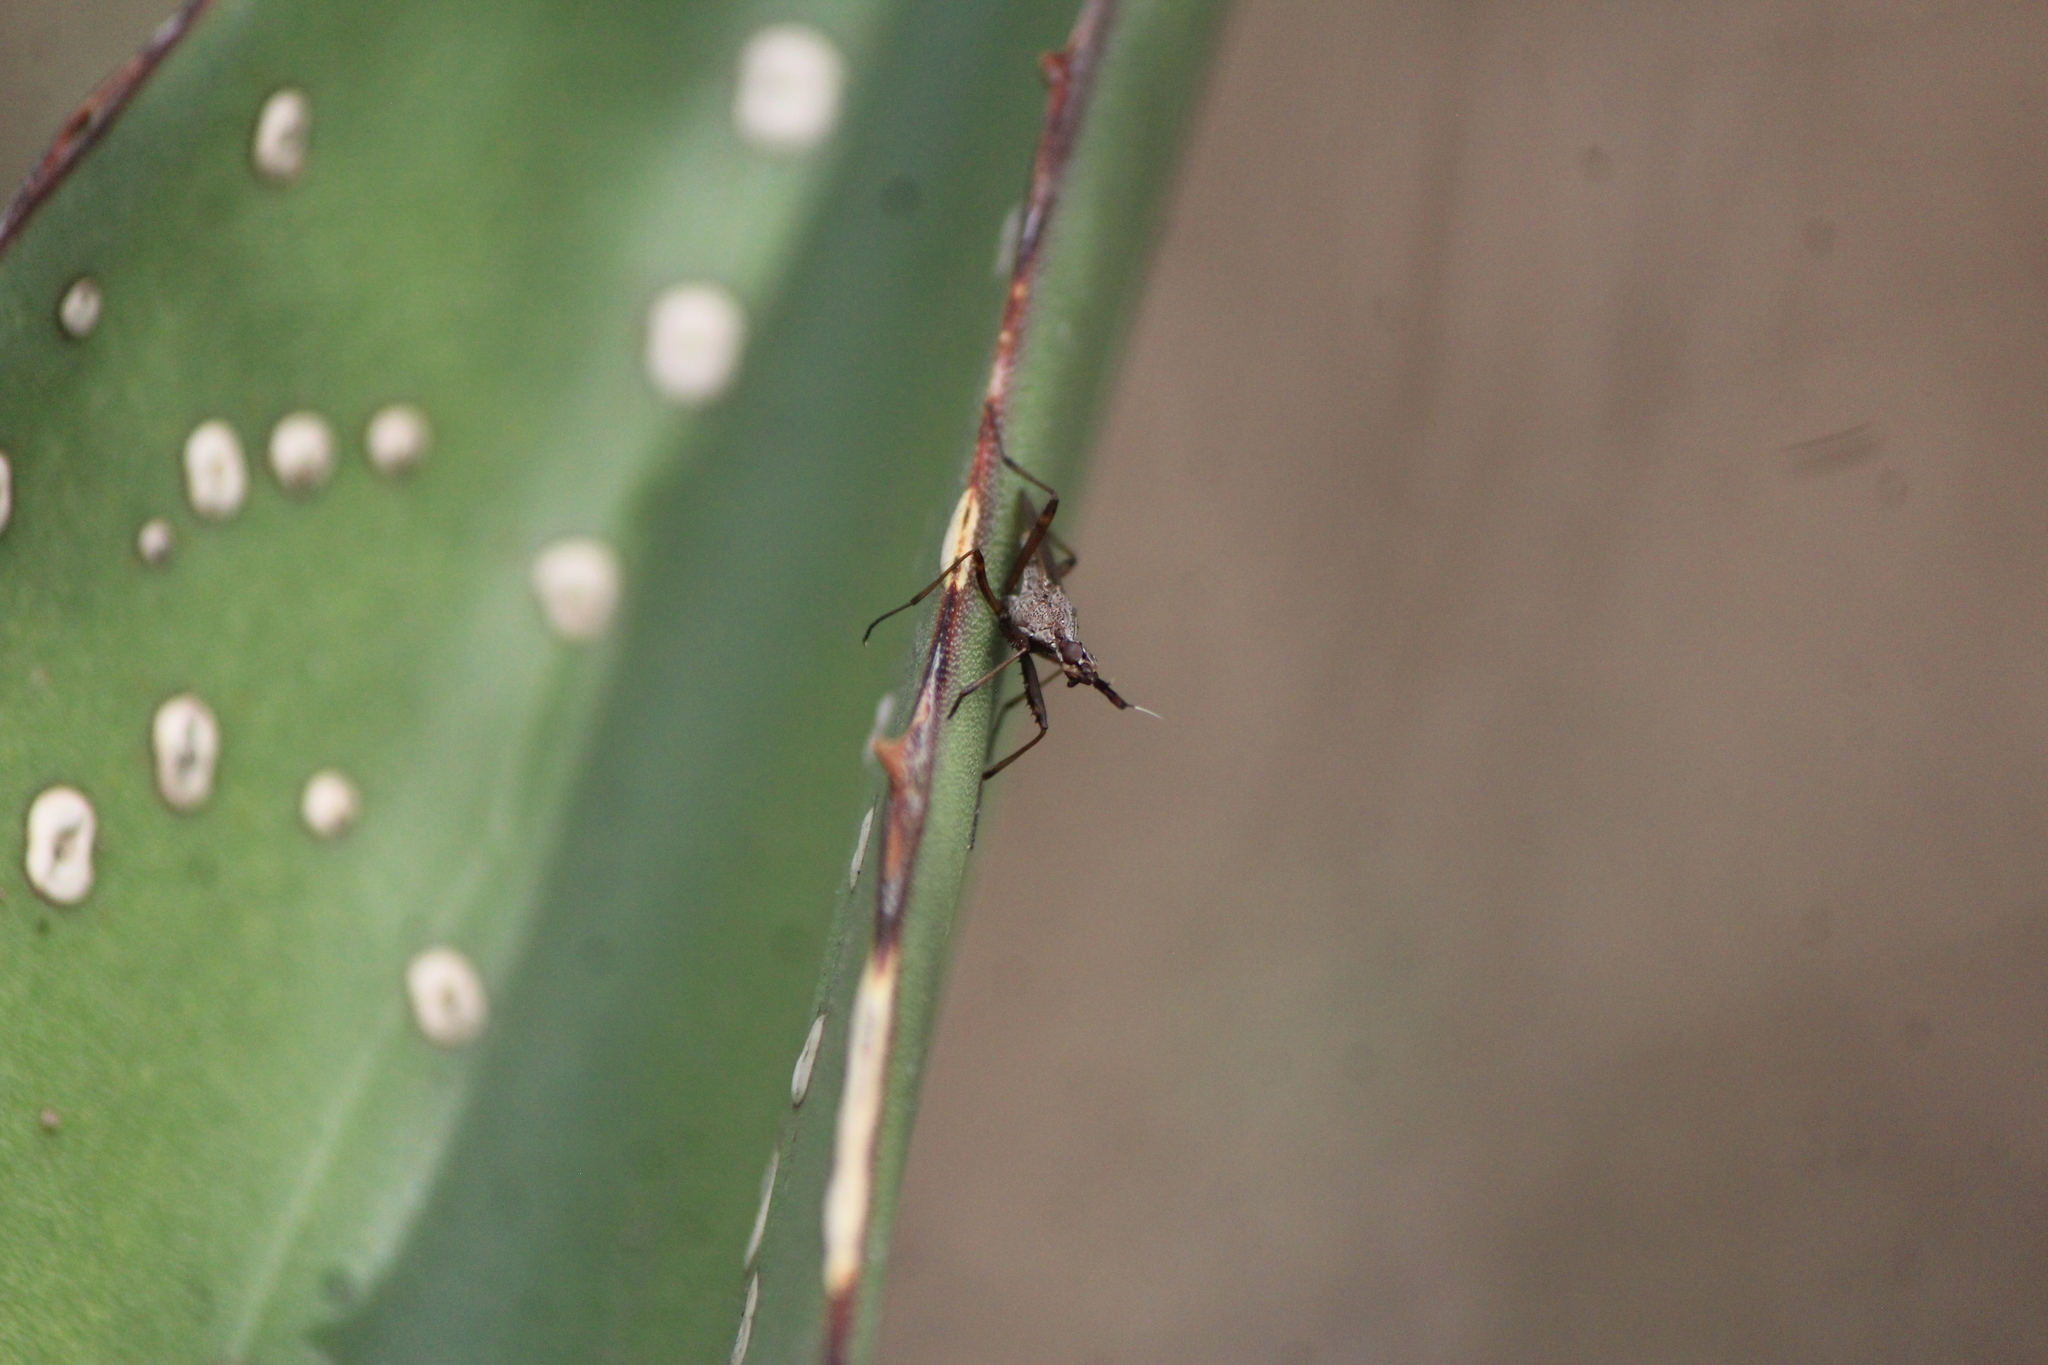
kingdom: Animalia
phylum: Arthropoda
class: Insecta
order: Diptera
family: Neriidae
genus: Odontoloxozus
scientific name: Odontoloxozus longicornis
